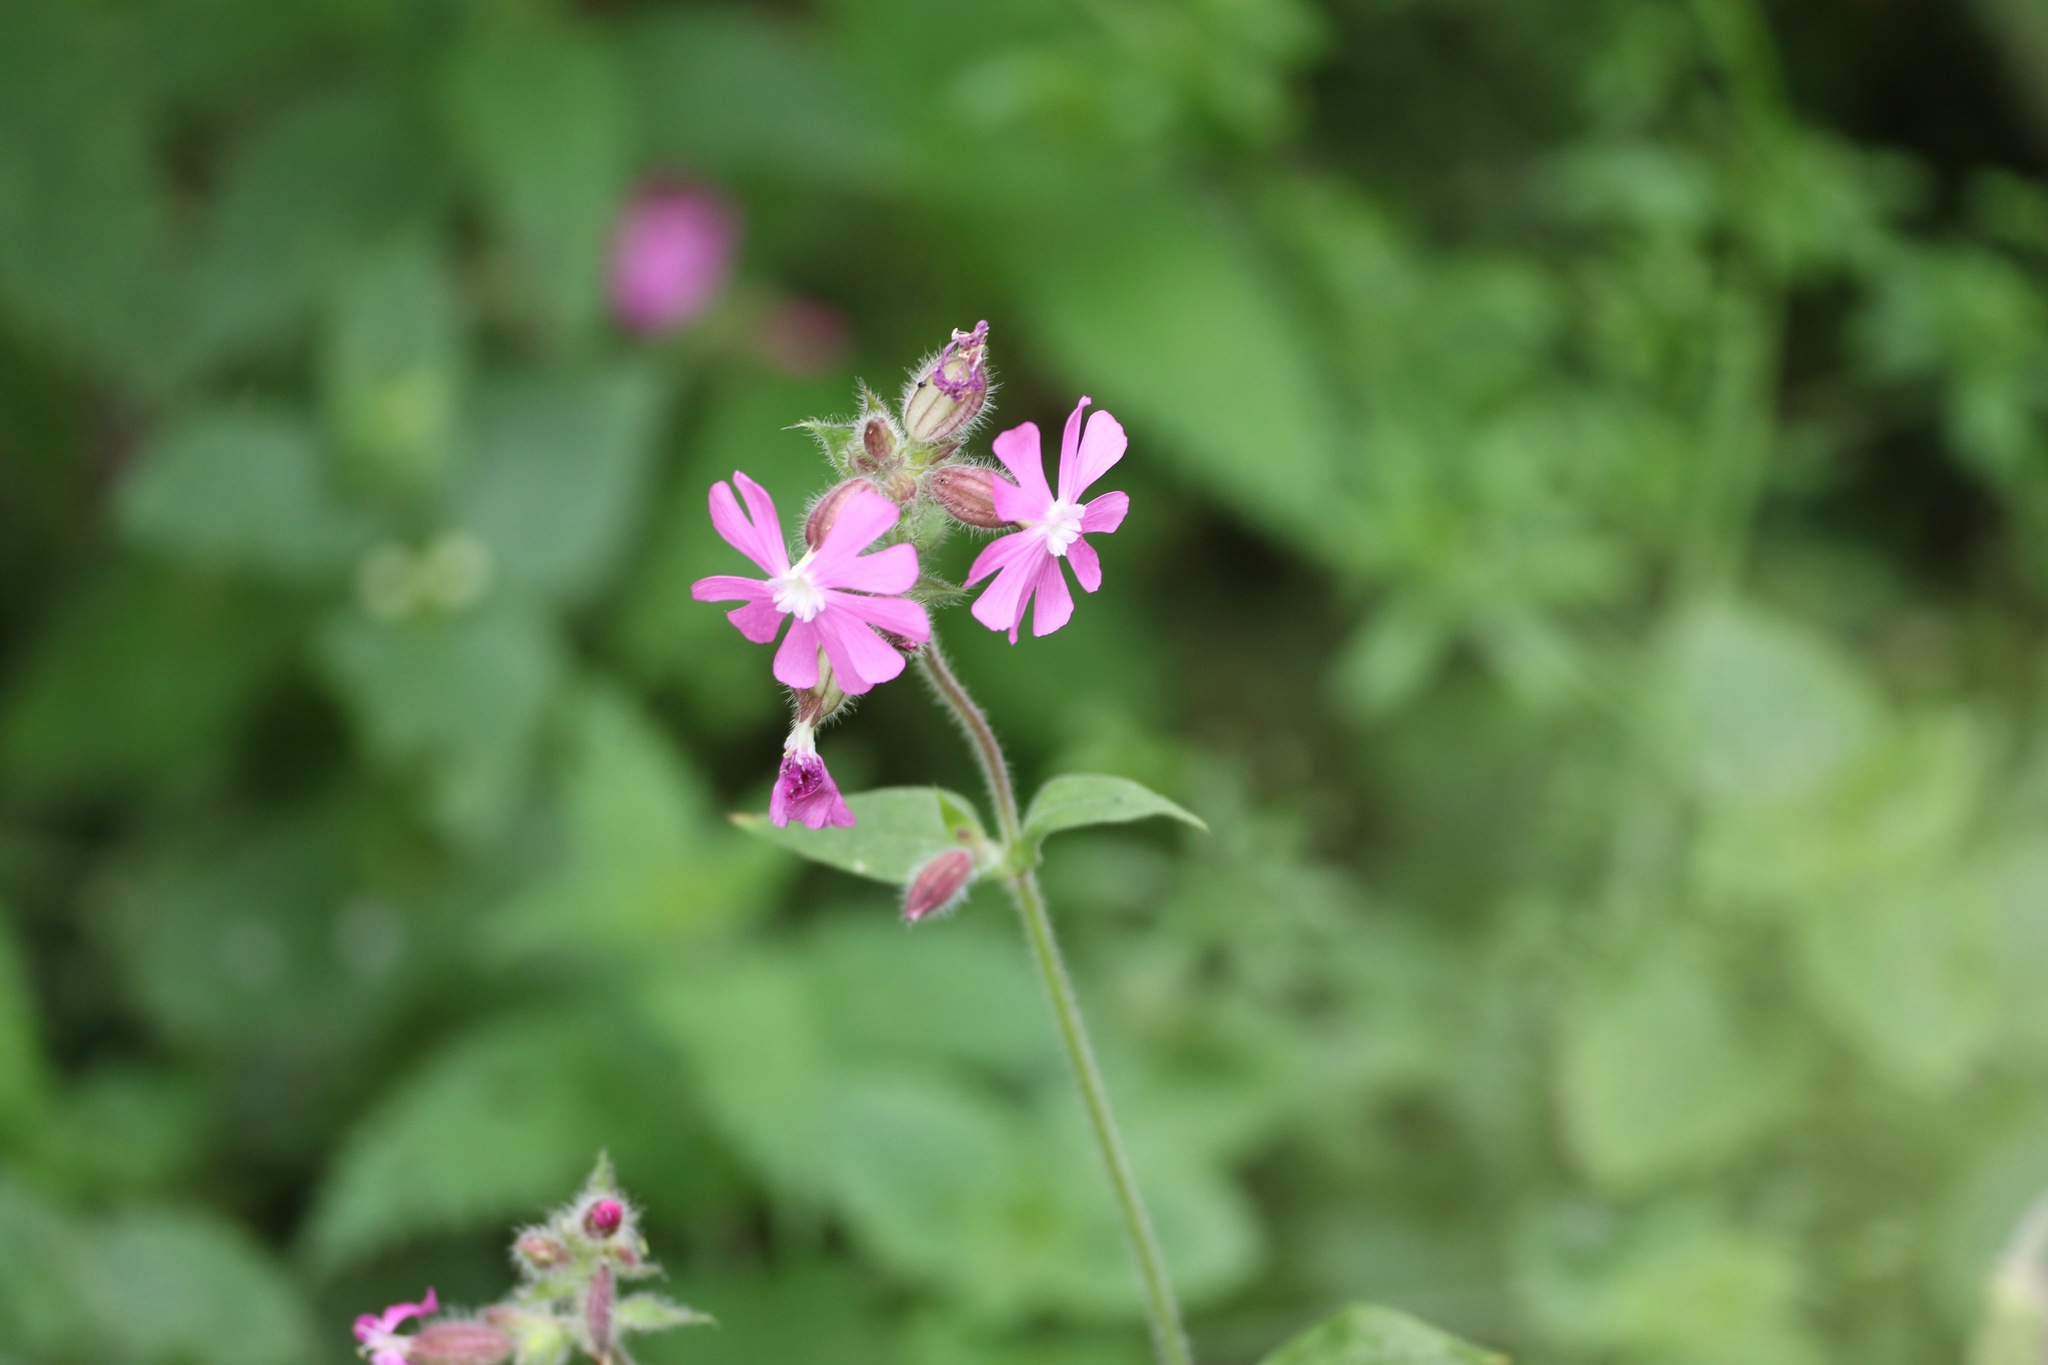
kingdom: Plantae
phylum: Tracheophyta
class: Magnoliopsida
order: Caryophyllales
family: Caryophyllaceae
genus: Silene
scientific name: Silene dioica
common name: Red campion
